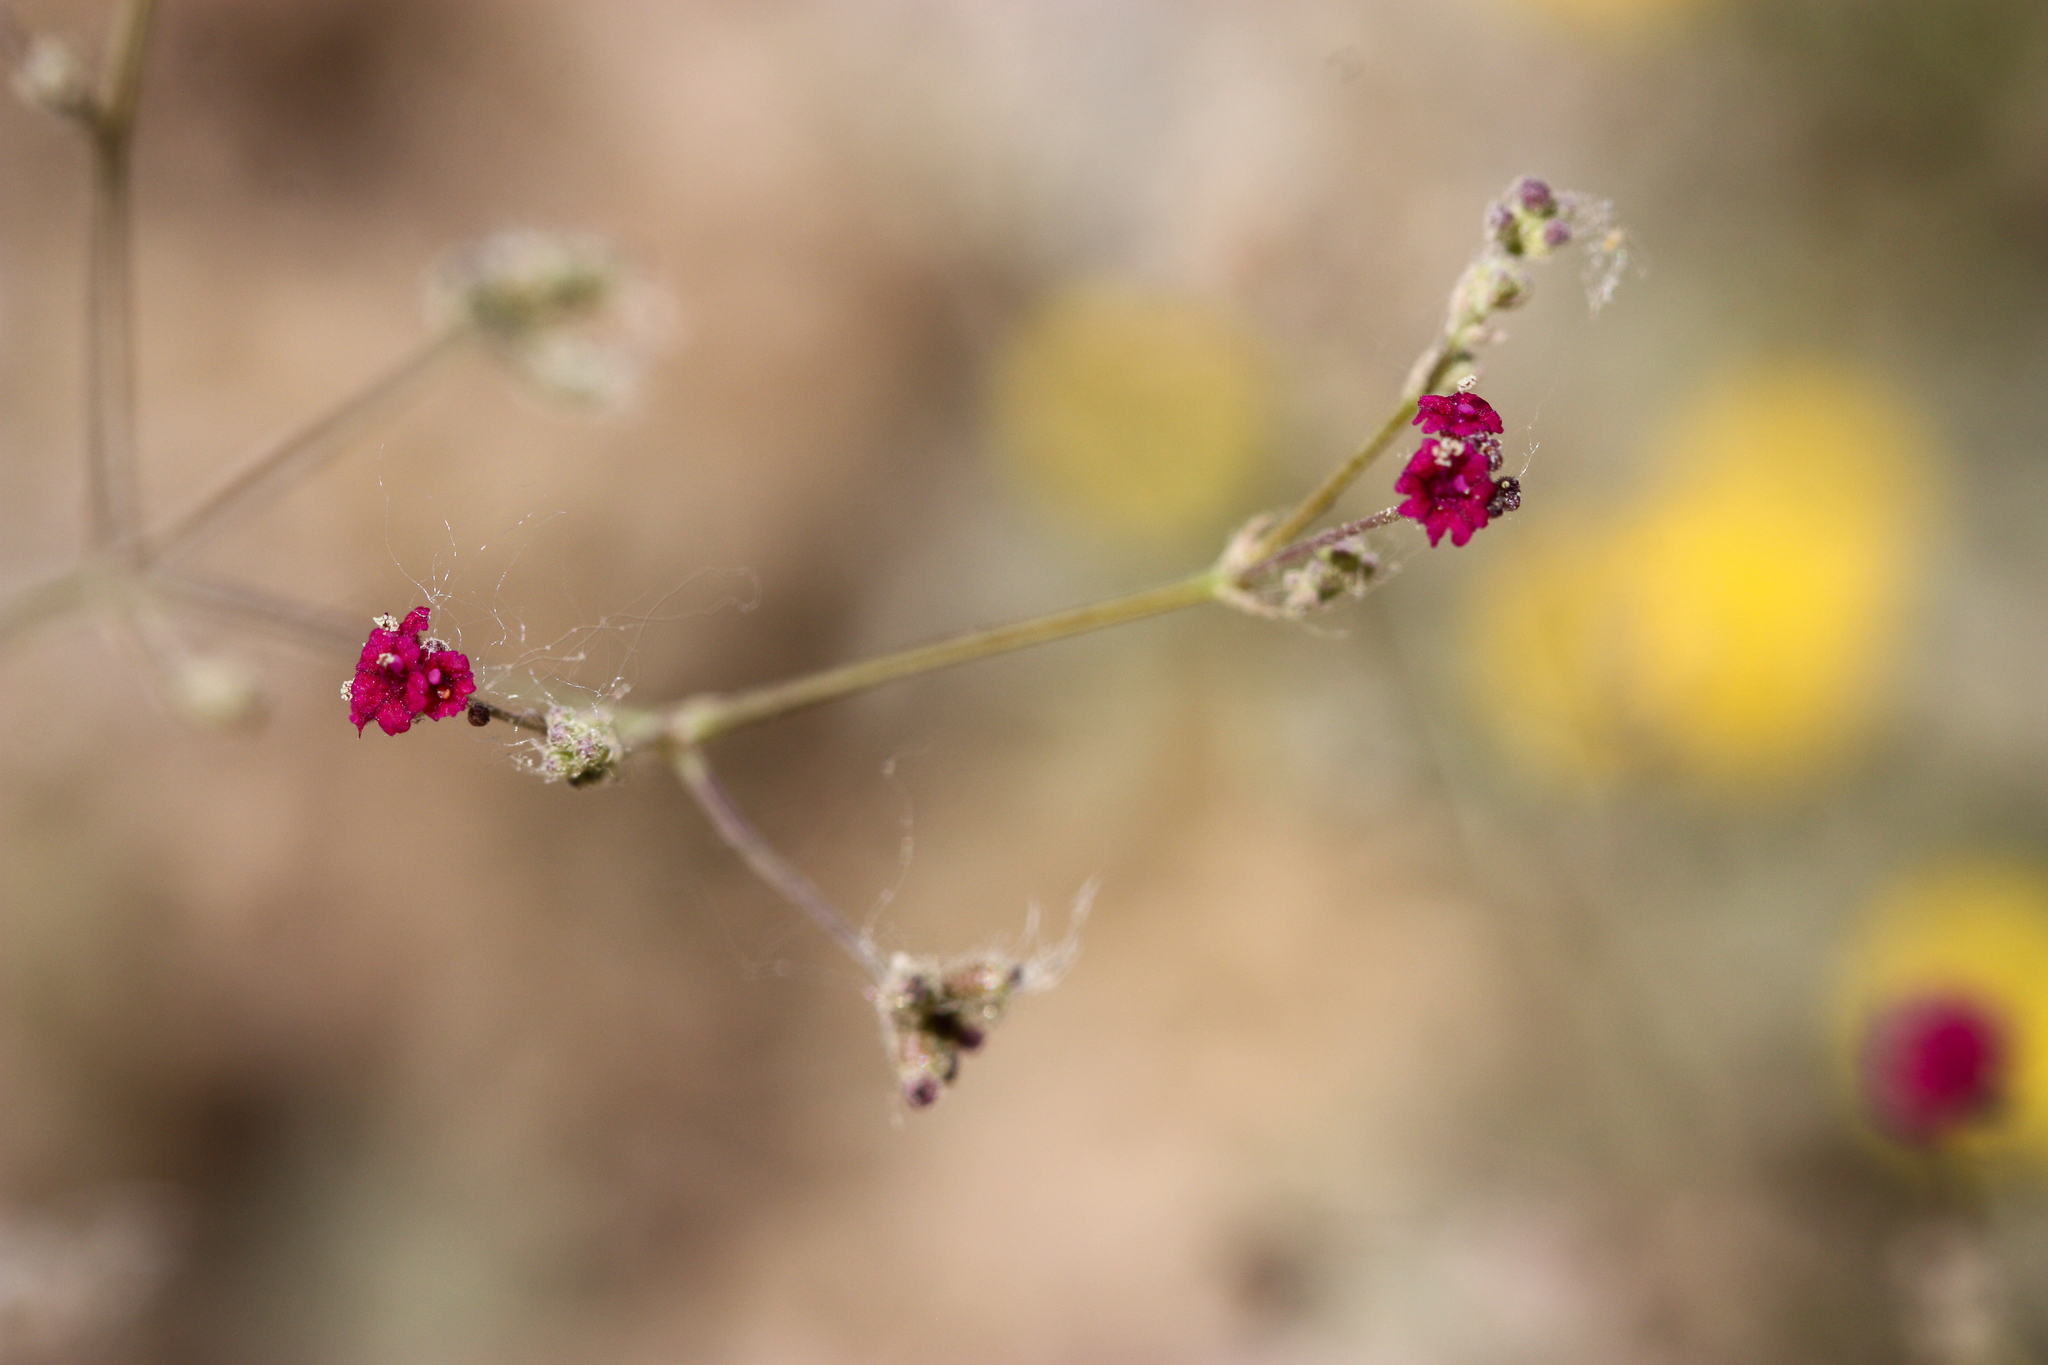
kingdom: Plantae
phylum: Tracheophyta
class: Magnoliopsida
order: Caryophyllales
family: Nyctaginaceae
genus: Boerhavia
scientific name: Boerhavia coccinea
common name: Scarlet spiderling
